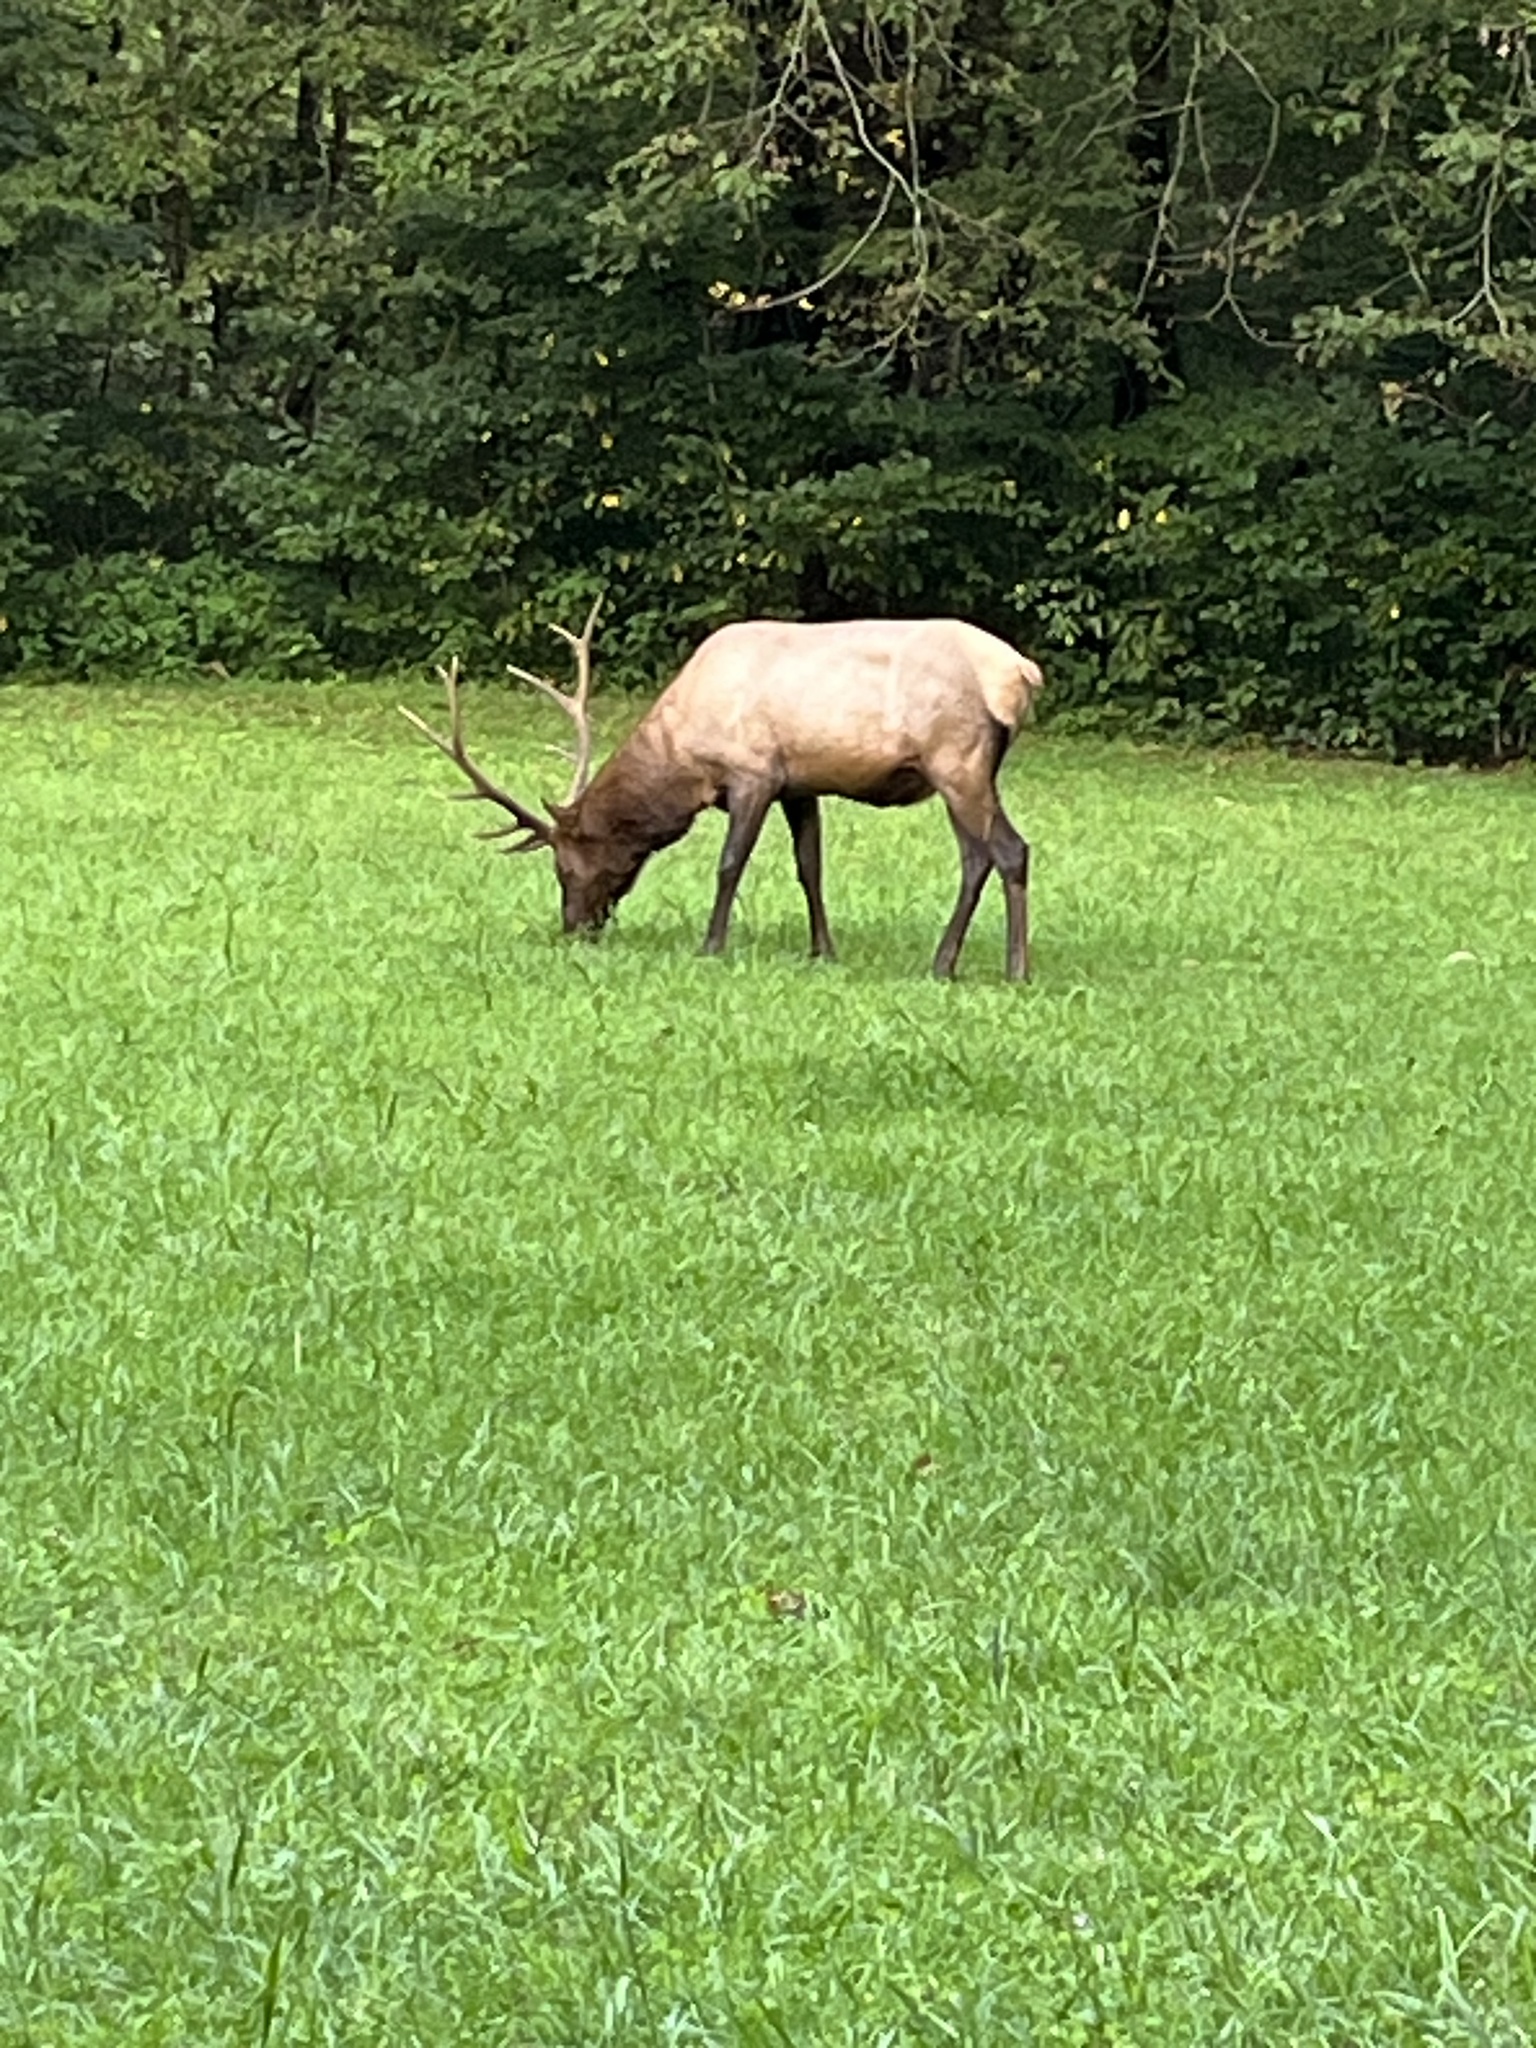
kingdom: Animalia
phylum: Chordata
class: Mammalia
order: Artiodactyla
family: Cervidae
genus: Cervus
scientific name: Cervus elaphus
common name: Red deer
